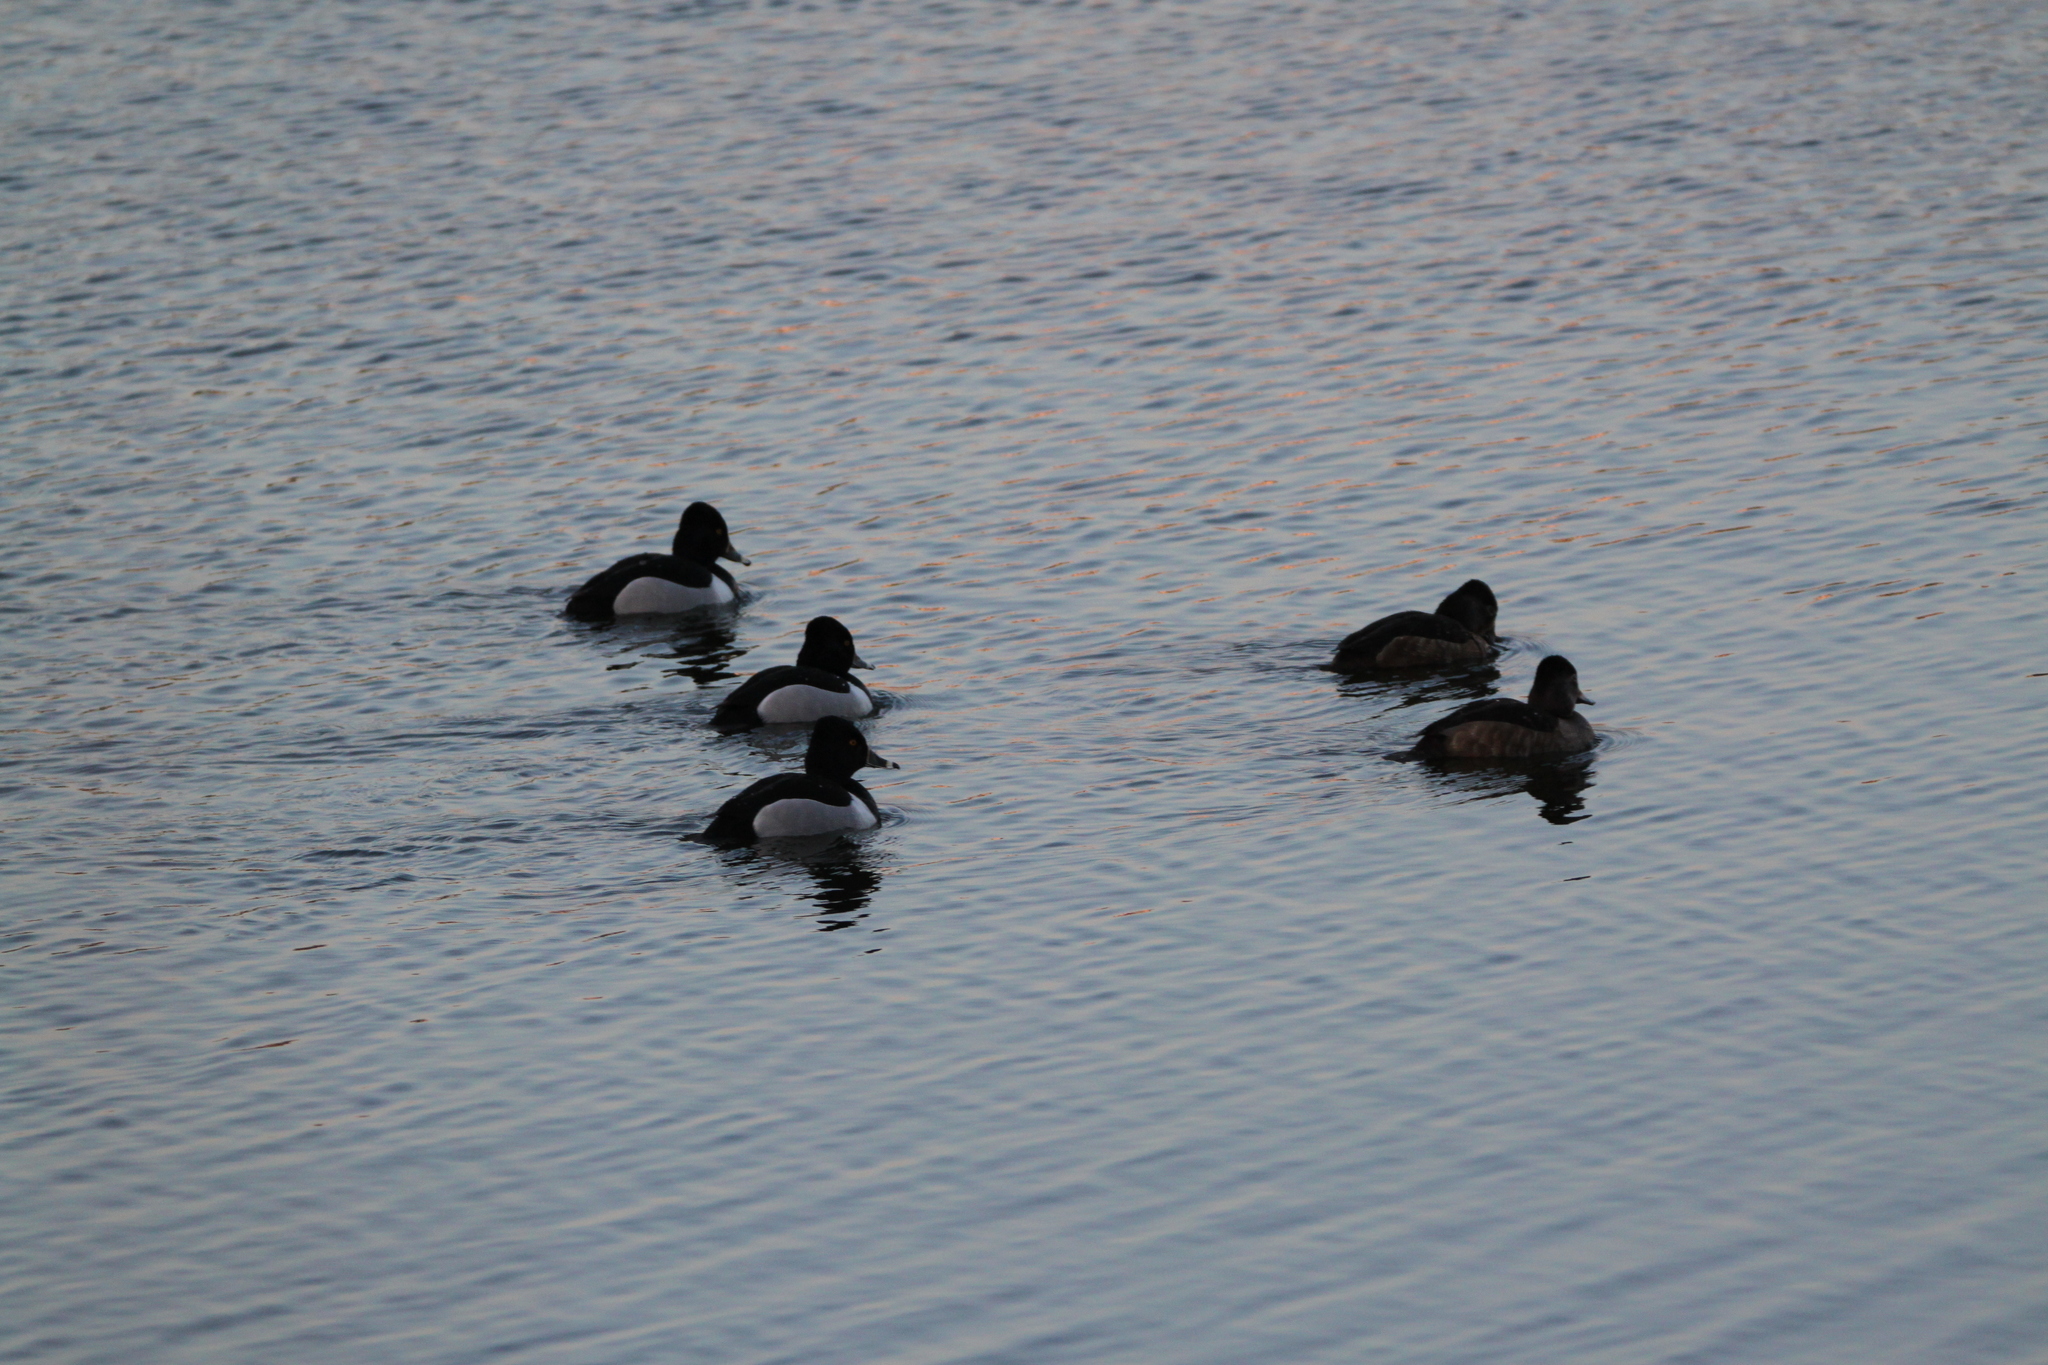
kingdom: Animalia
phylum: Chordata
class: Aves
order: Anseriformes
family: Anatidae
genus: Aythya
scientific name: Aythya collaris
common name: Ring-necked duck
